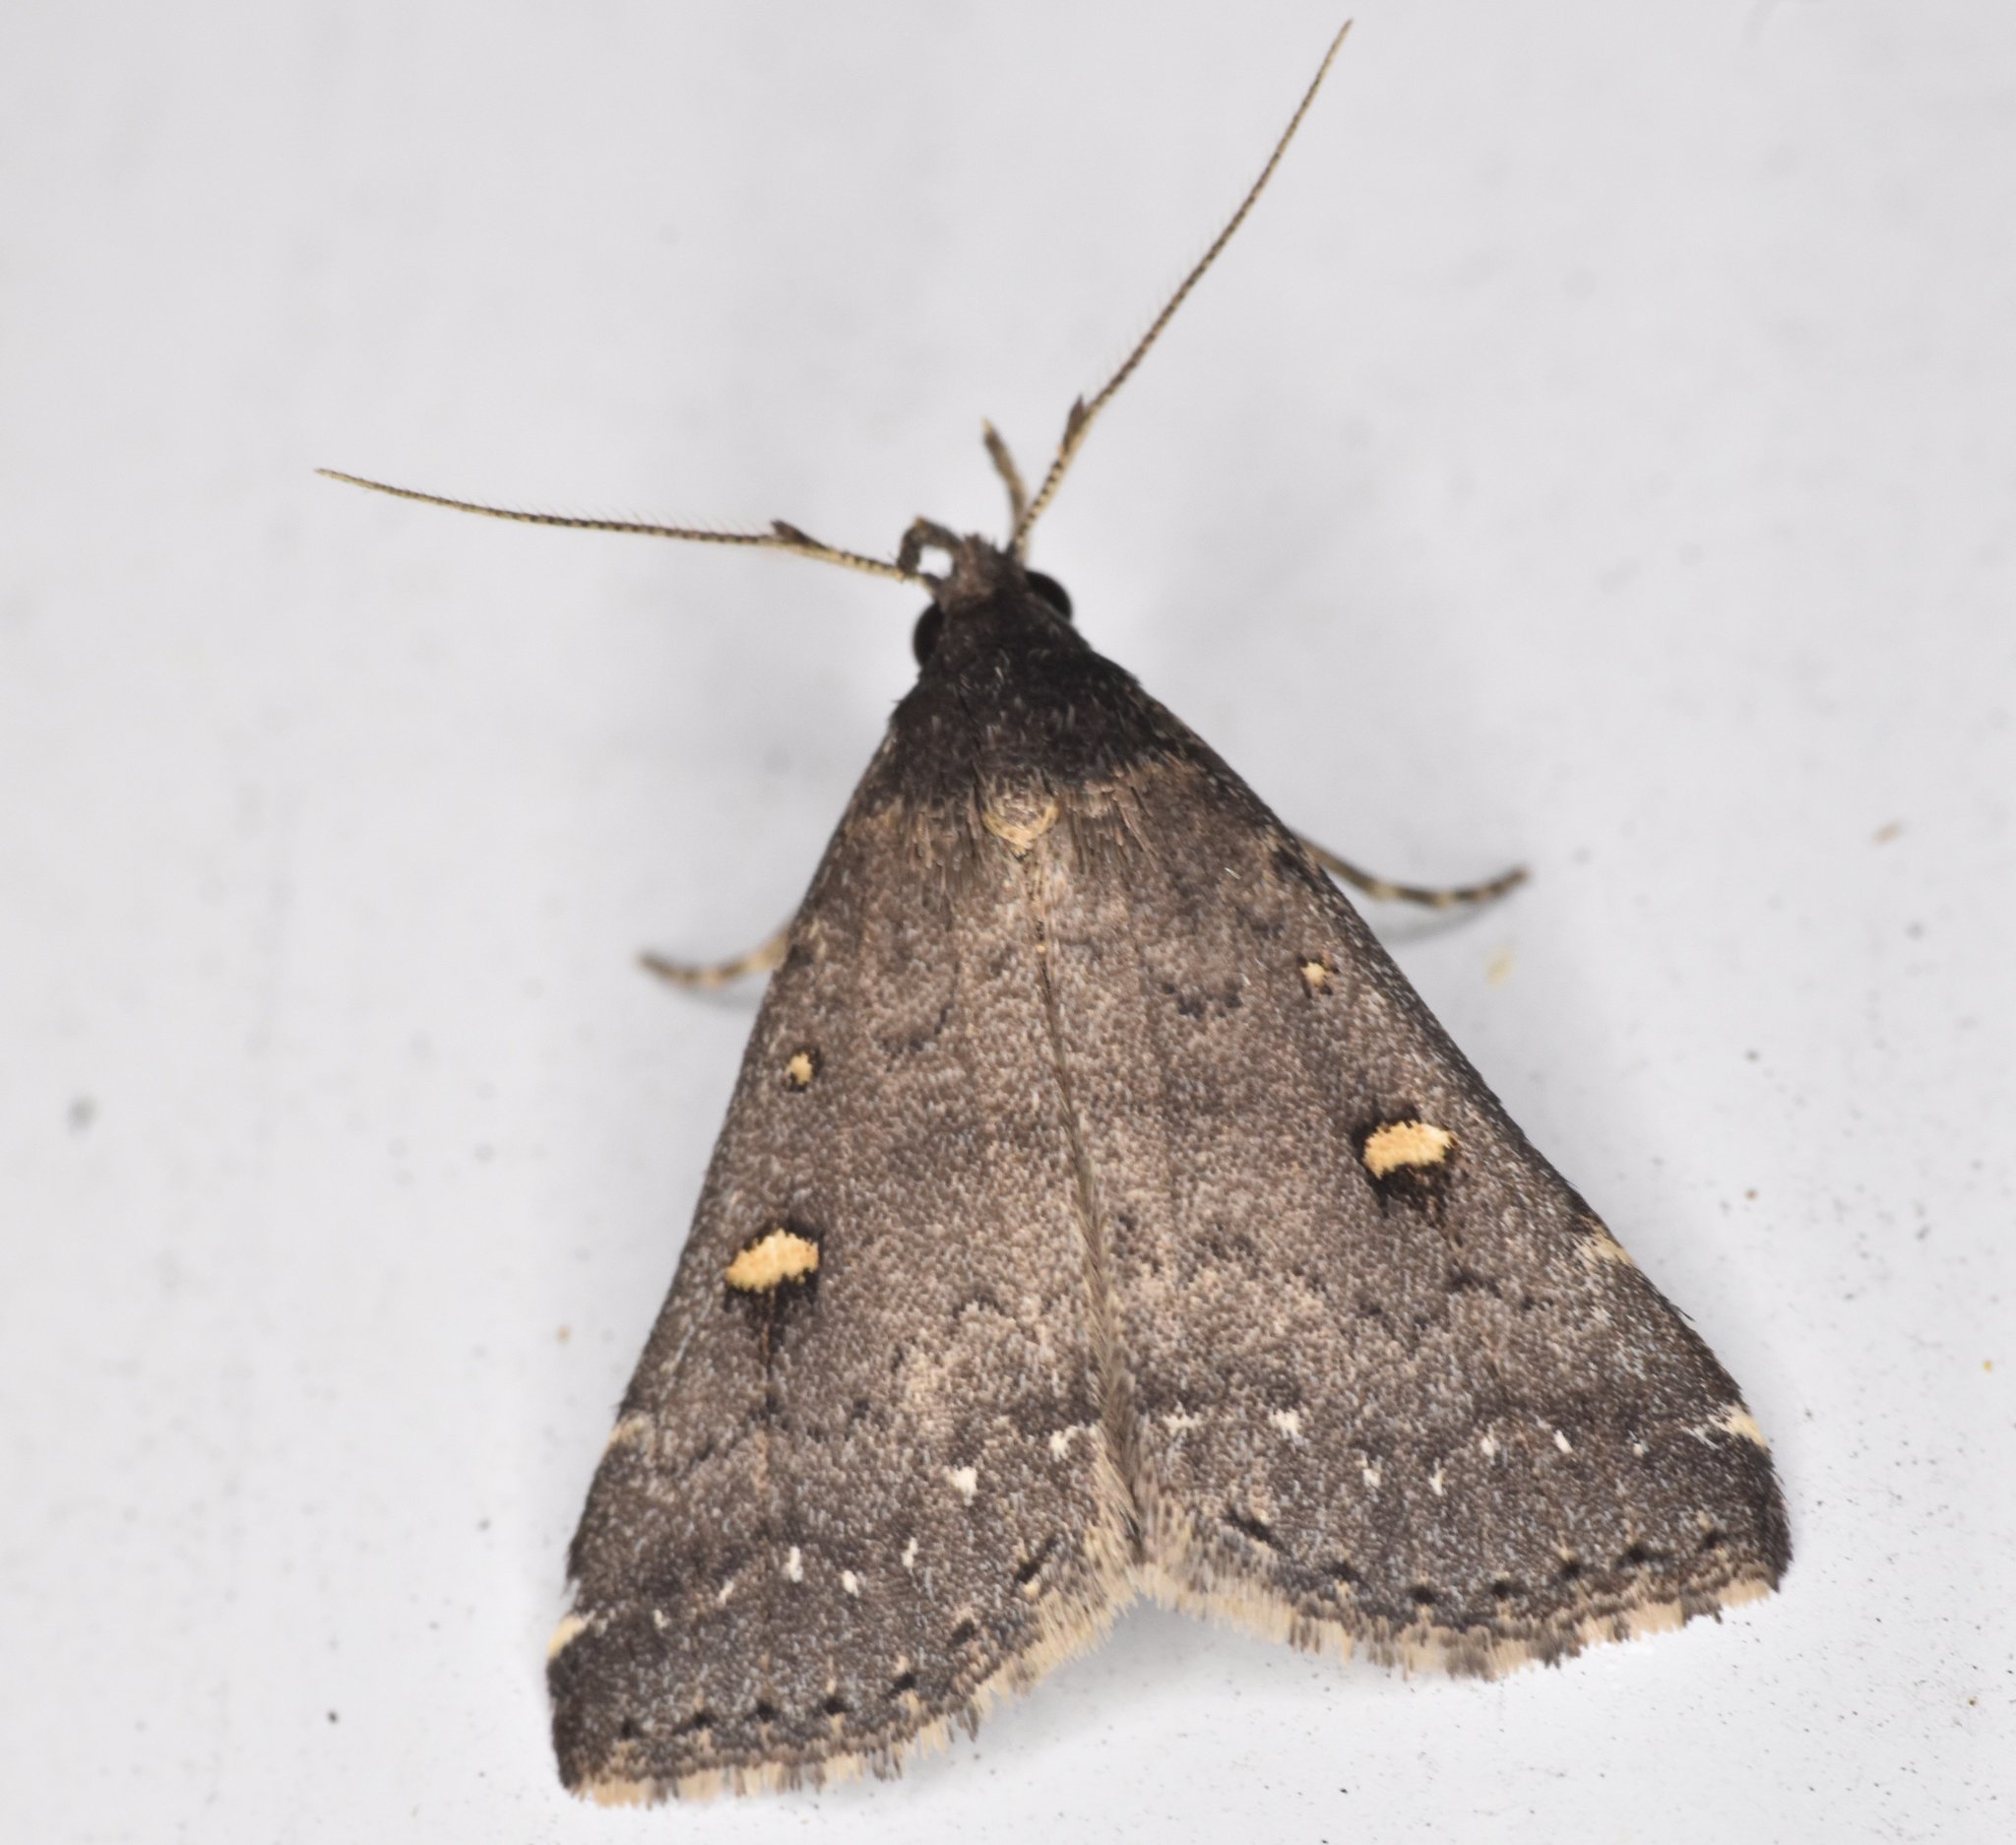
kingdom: Animalia
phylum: Arthropoda
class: Insecta
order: Lepidoptera
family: Erebidae
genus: Tetanolita
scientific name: Tetanolita mynesalis
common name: Smoky tetanolita moth
